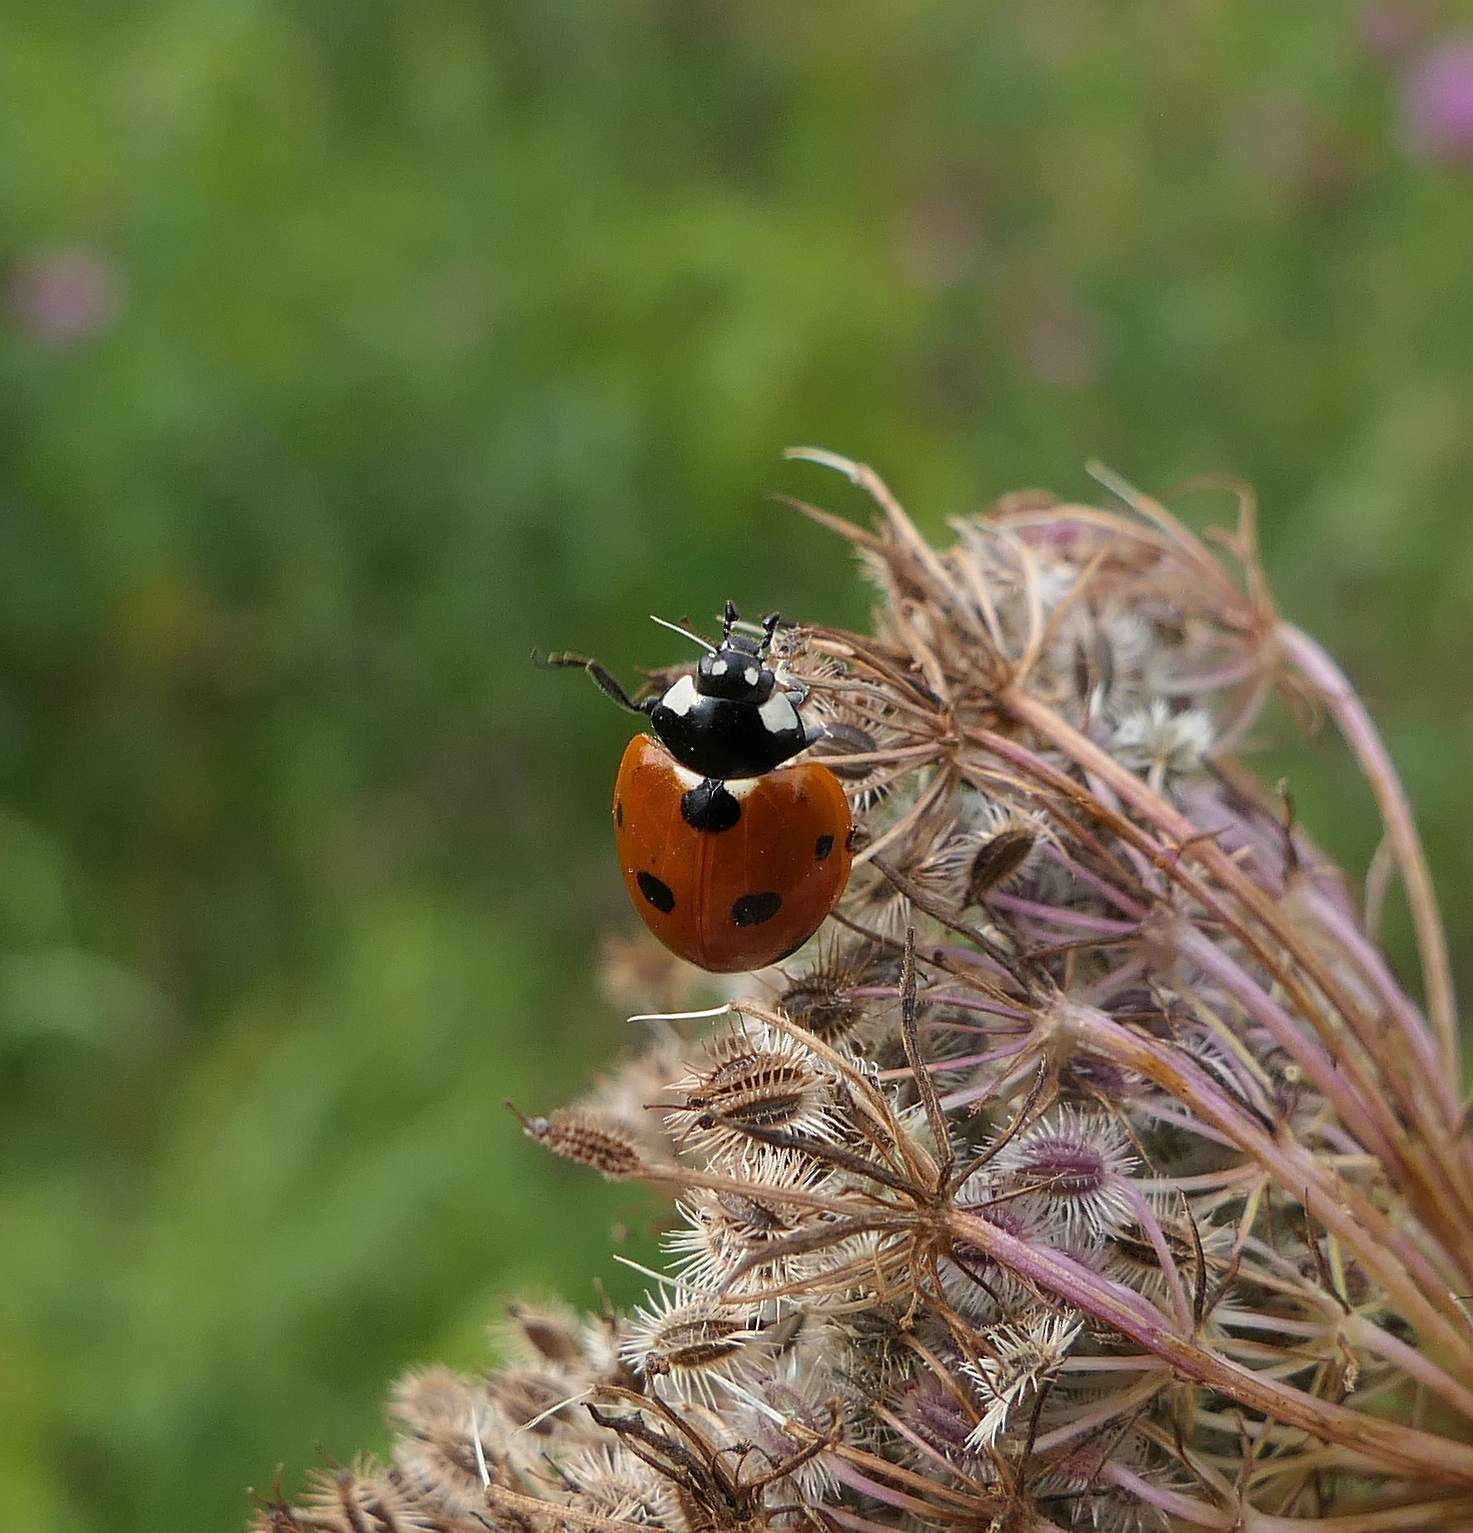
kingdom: Animalia
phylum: Arthropoda
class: Insecta
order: Coleoptera
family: Coccinellidae
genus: Coccinella
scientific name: Coccinella septempunctata
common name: Sevenspotted lady beetle
